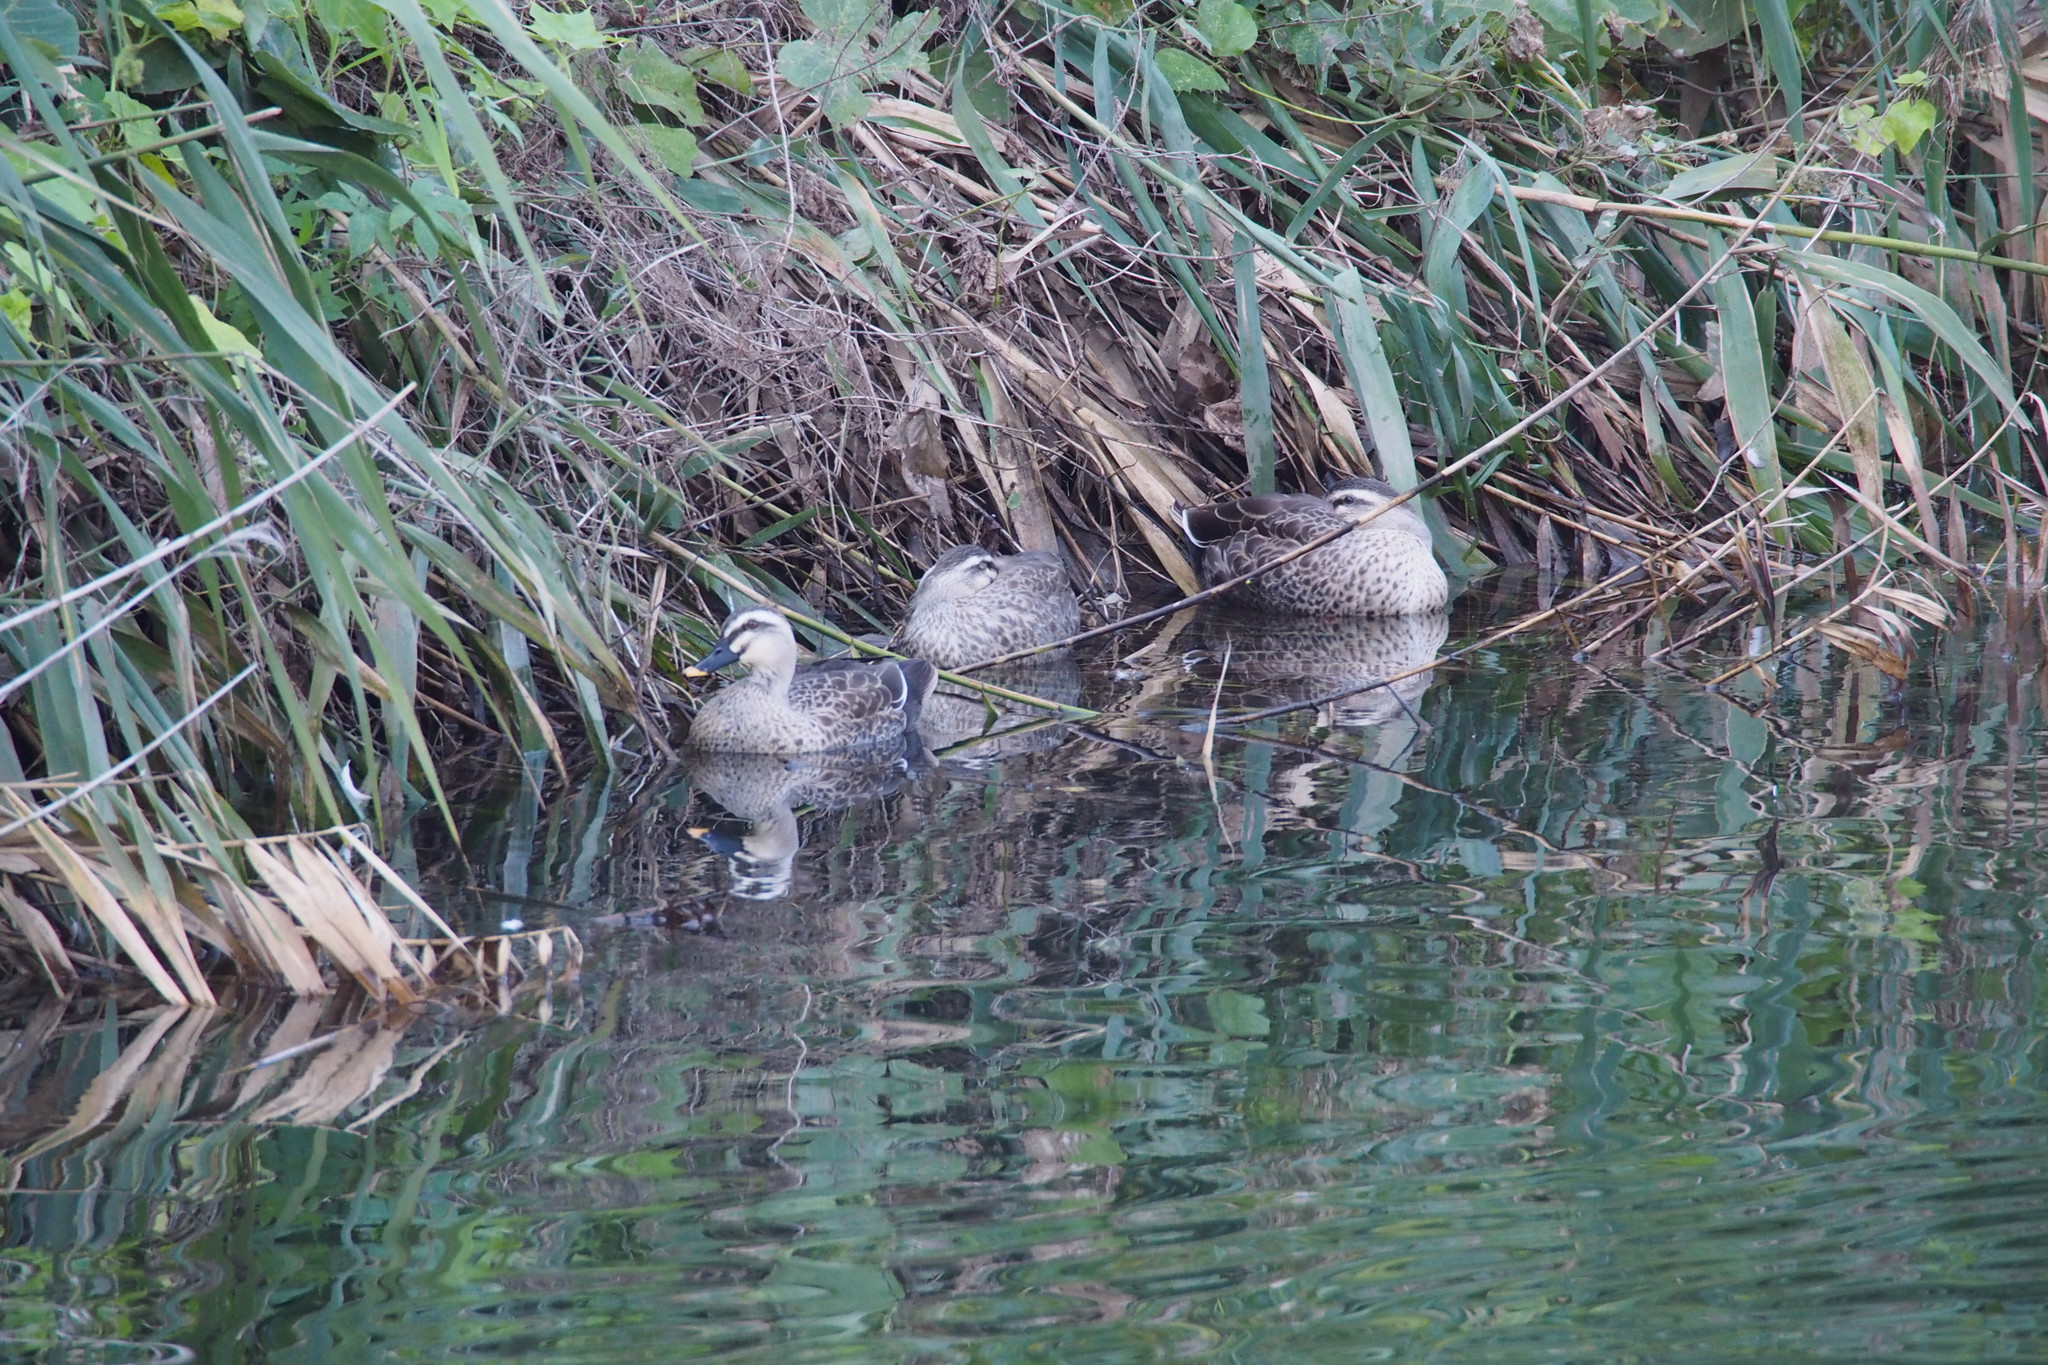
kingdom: Animalia
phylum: Chordata
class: Aves
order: Anseriformes
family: Anatidae
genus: Anas
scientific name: Anas zonorhyncha
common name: Eastern spot-billed duck
